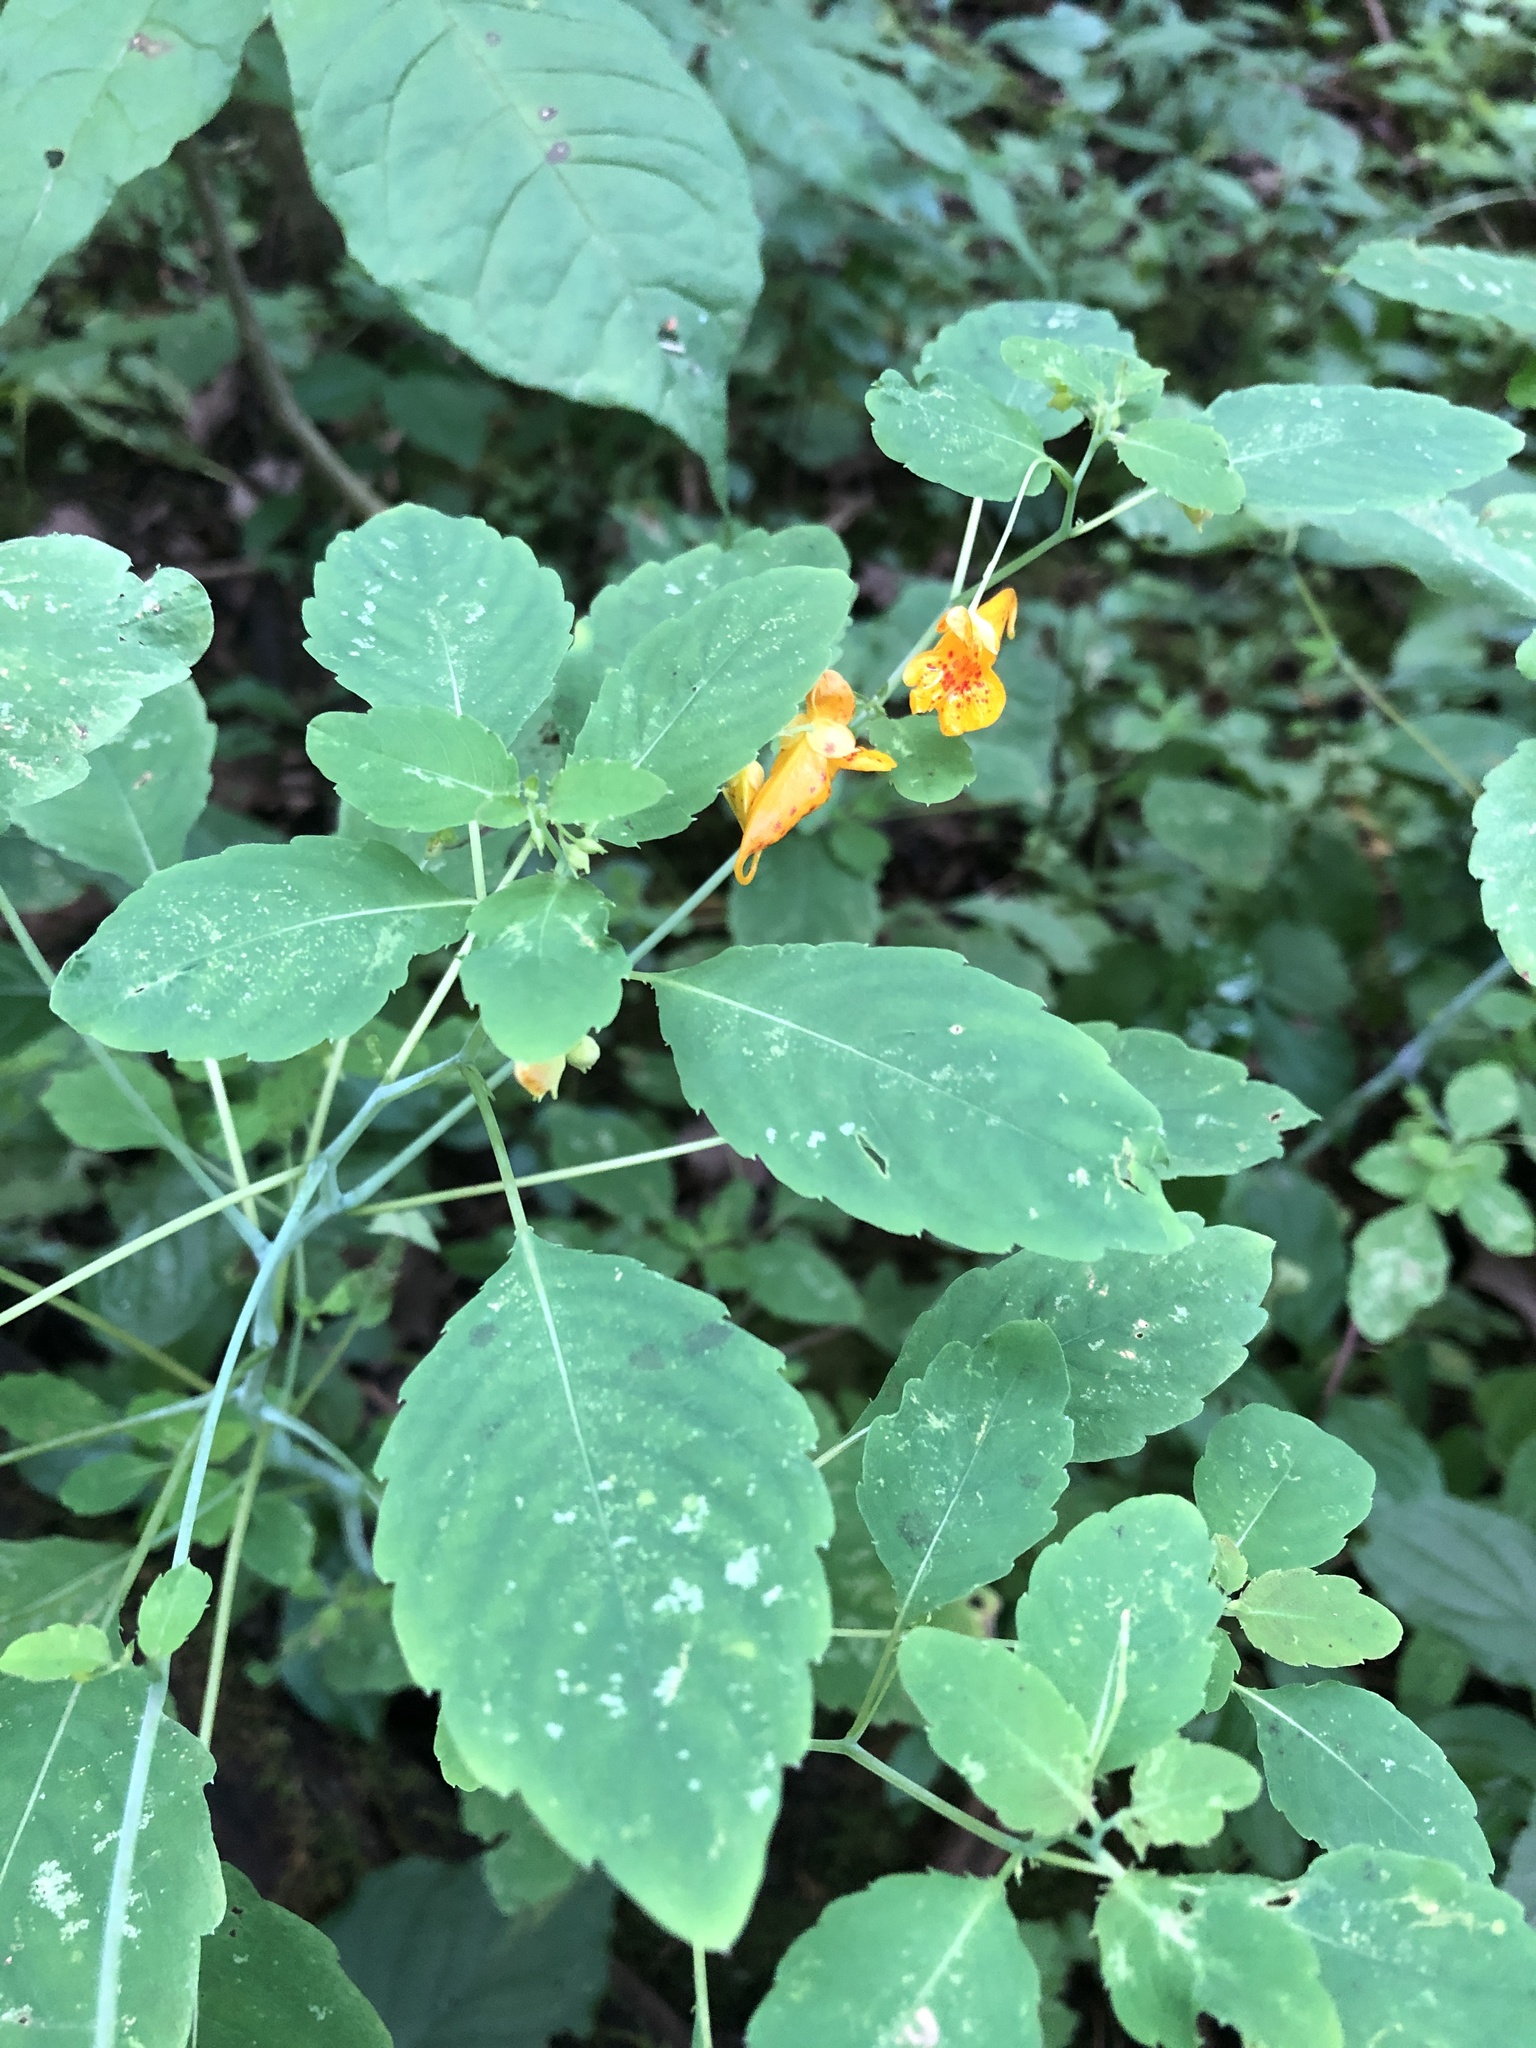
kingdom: Plantae
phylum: Tracheophyta
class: Magnoliopsida
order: Ericales
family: Balsaminaceae
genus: Impatiens
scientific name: Impatiens capensis
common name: Orange balsam
